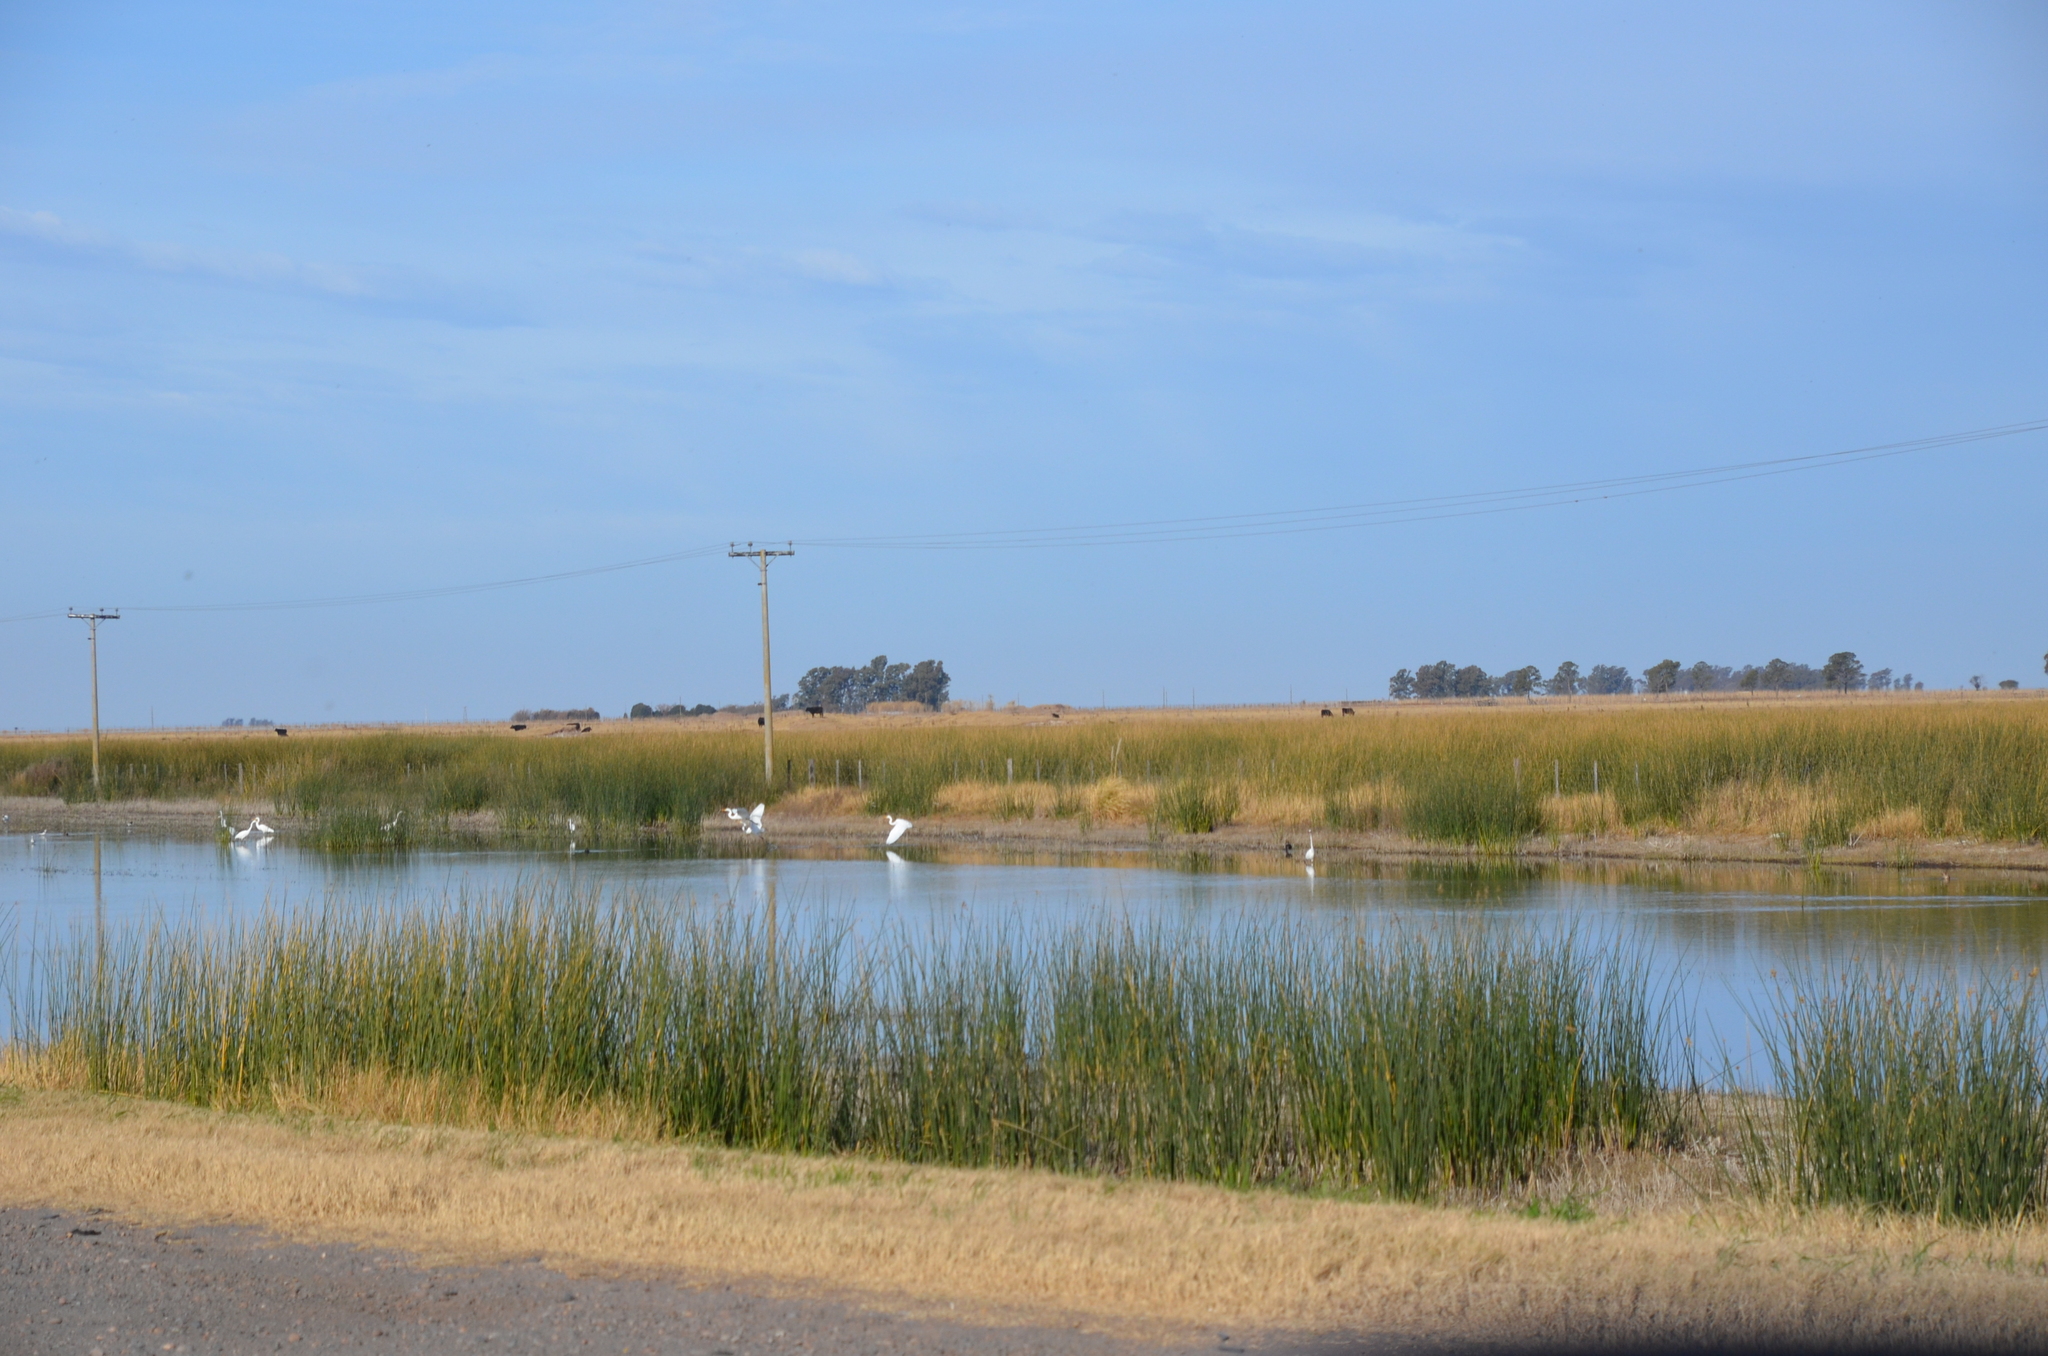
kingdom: Animalia
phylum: Chordata
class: Aves
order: Pelecaniformes
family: Ardeidae
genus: Ardea
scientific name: Ardea alba
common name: Great egret
